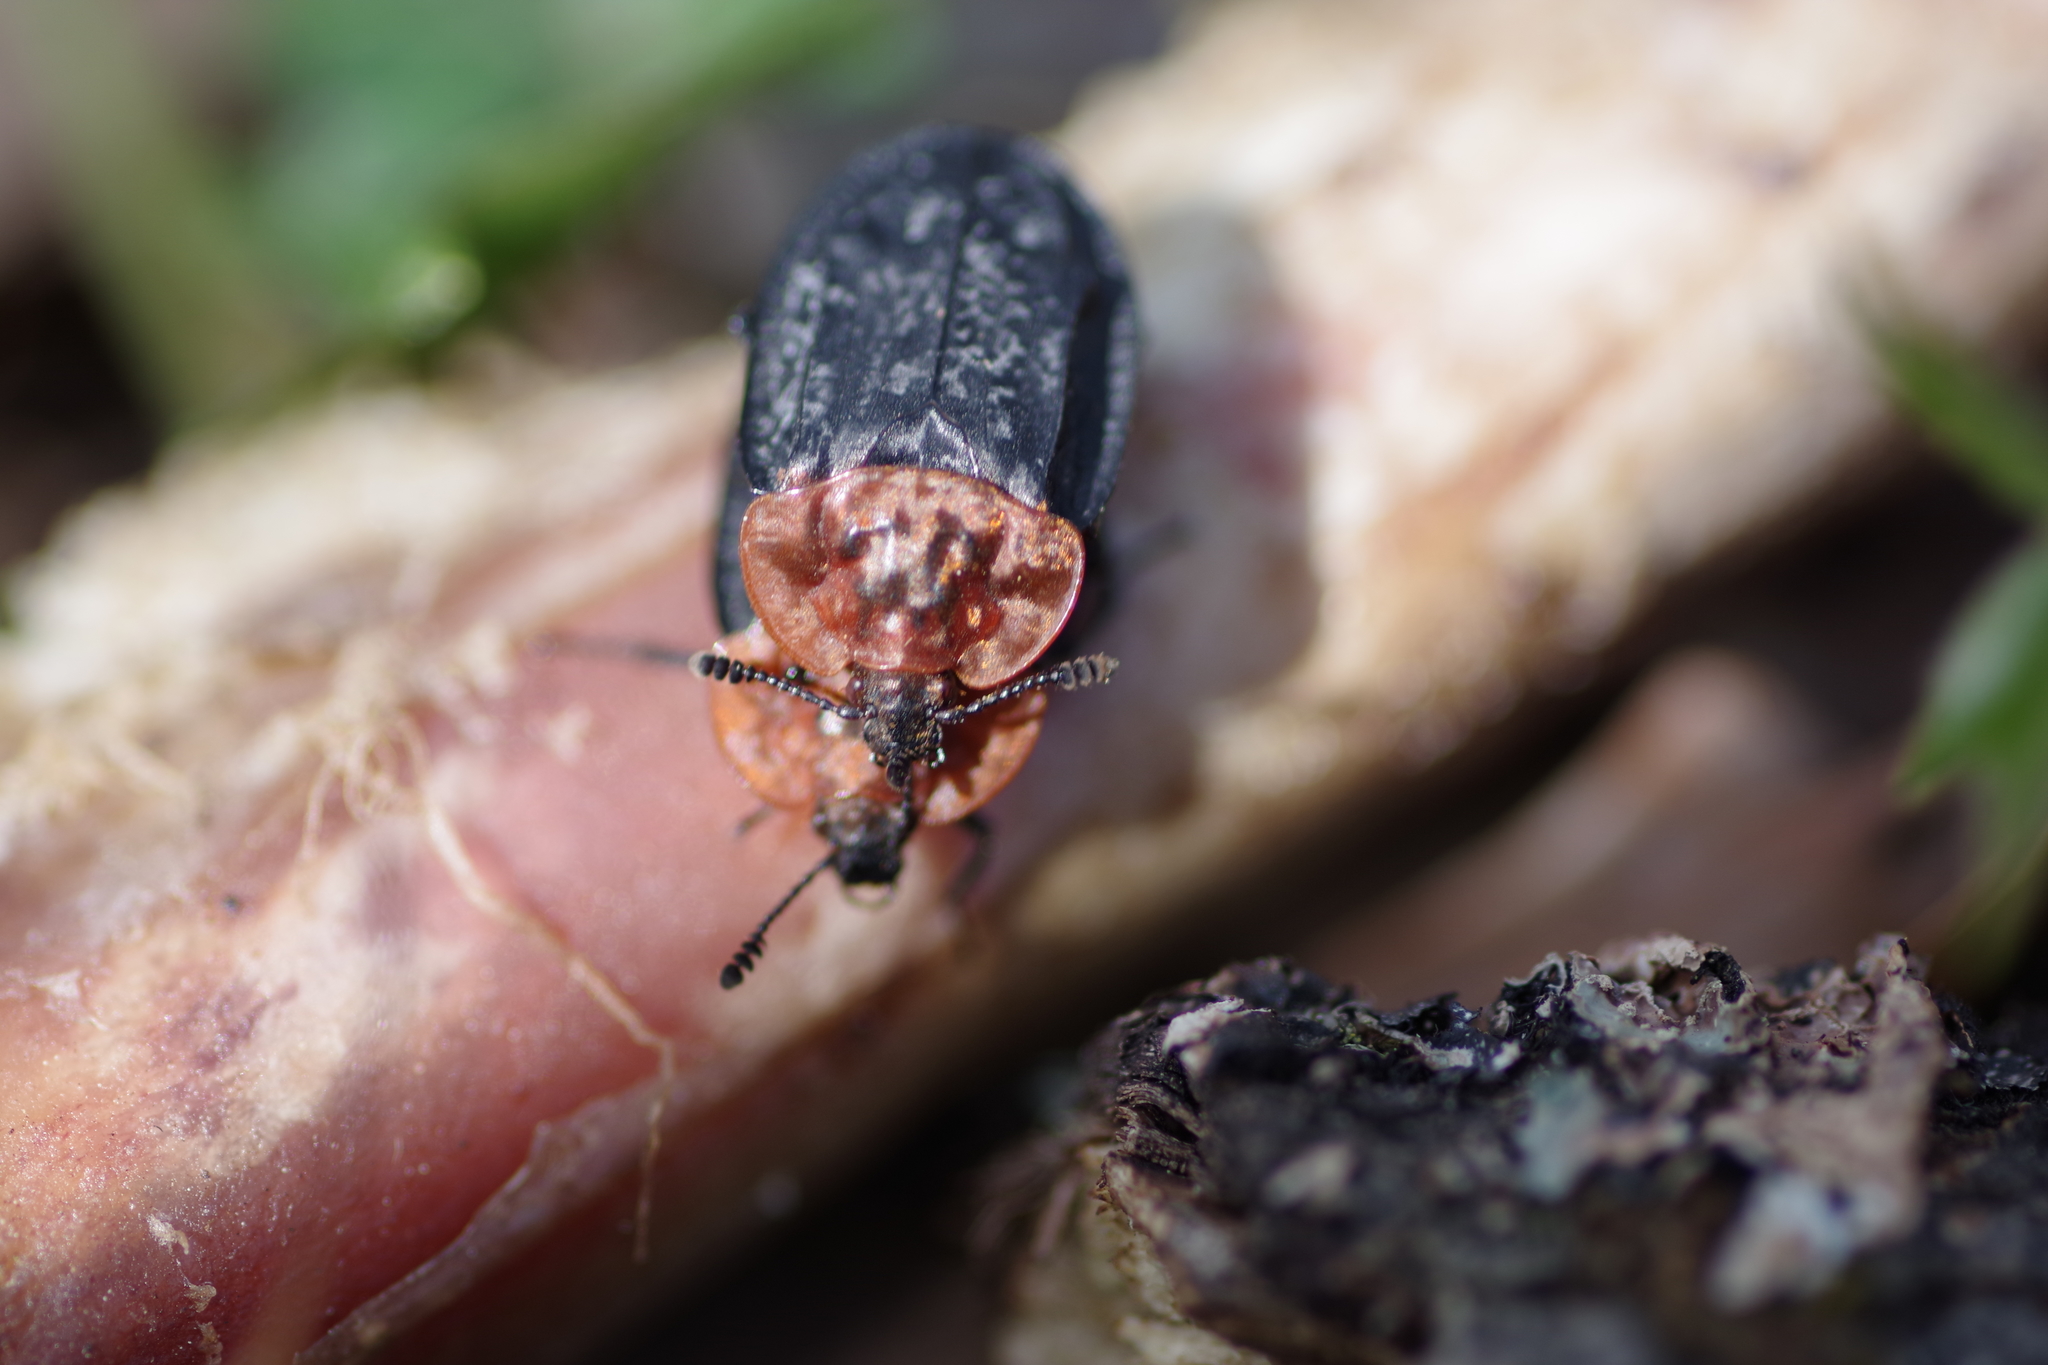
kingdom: Animalia
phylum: Arthropoda
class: Insecta
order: Coleoptera
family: Staphylinidae
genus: Oiceoptoma
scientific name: Oiceoptoma thoracicum
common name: Red-breasted carrion beetle
